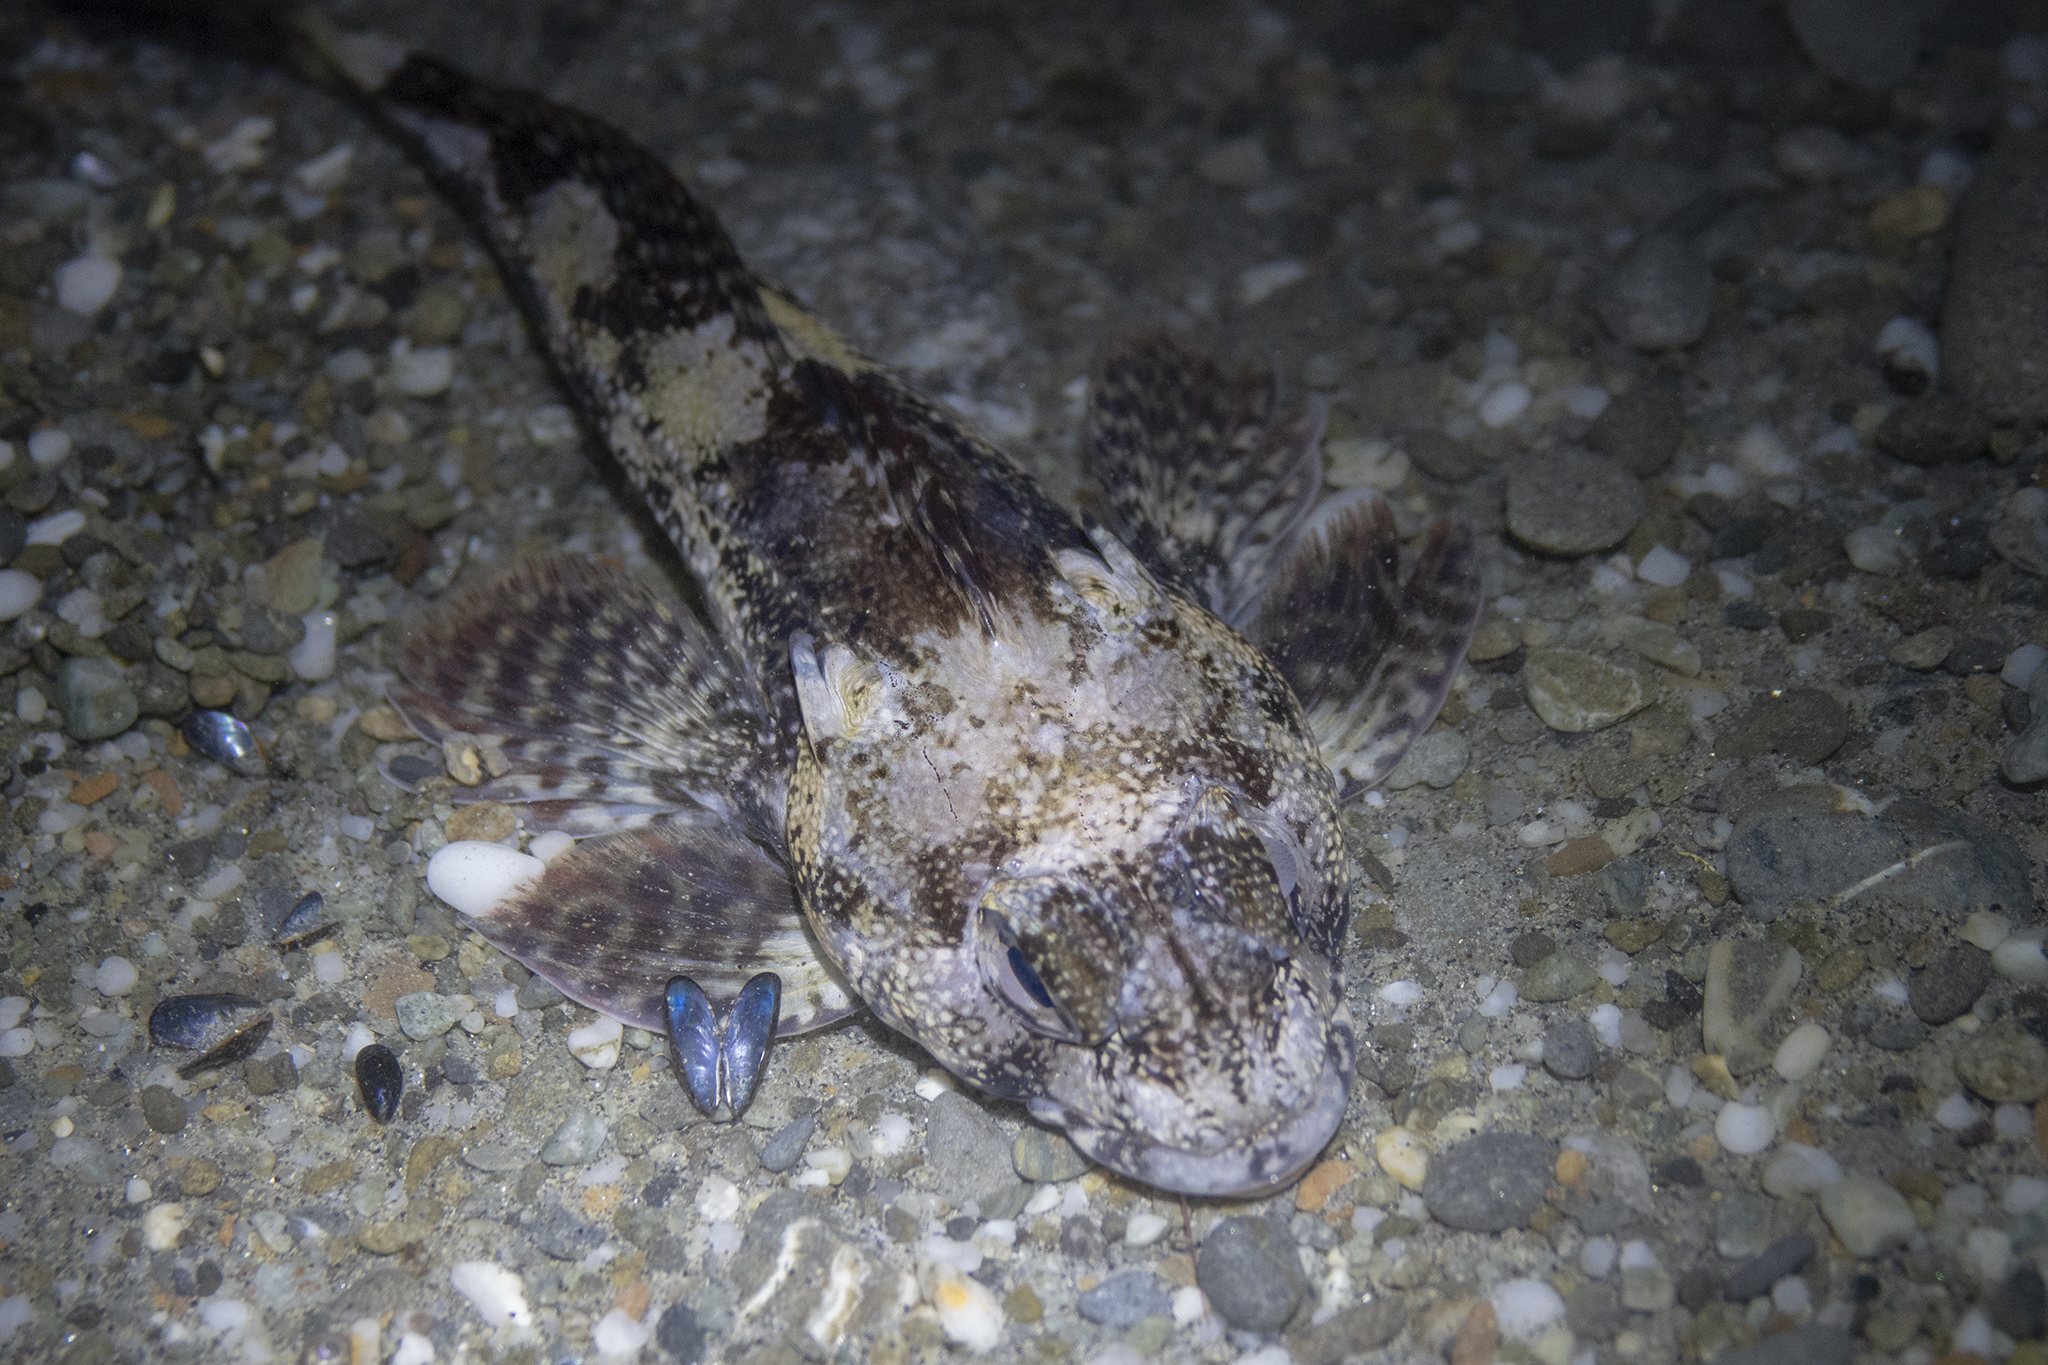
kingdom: Animalia
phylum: Chordata
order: Perciformes
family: Bovichtidae
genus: Bovichtus
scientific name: Bovichtus variegatus
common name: Thornfish
